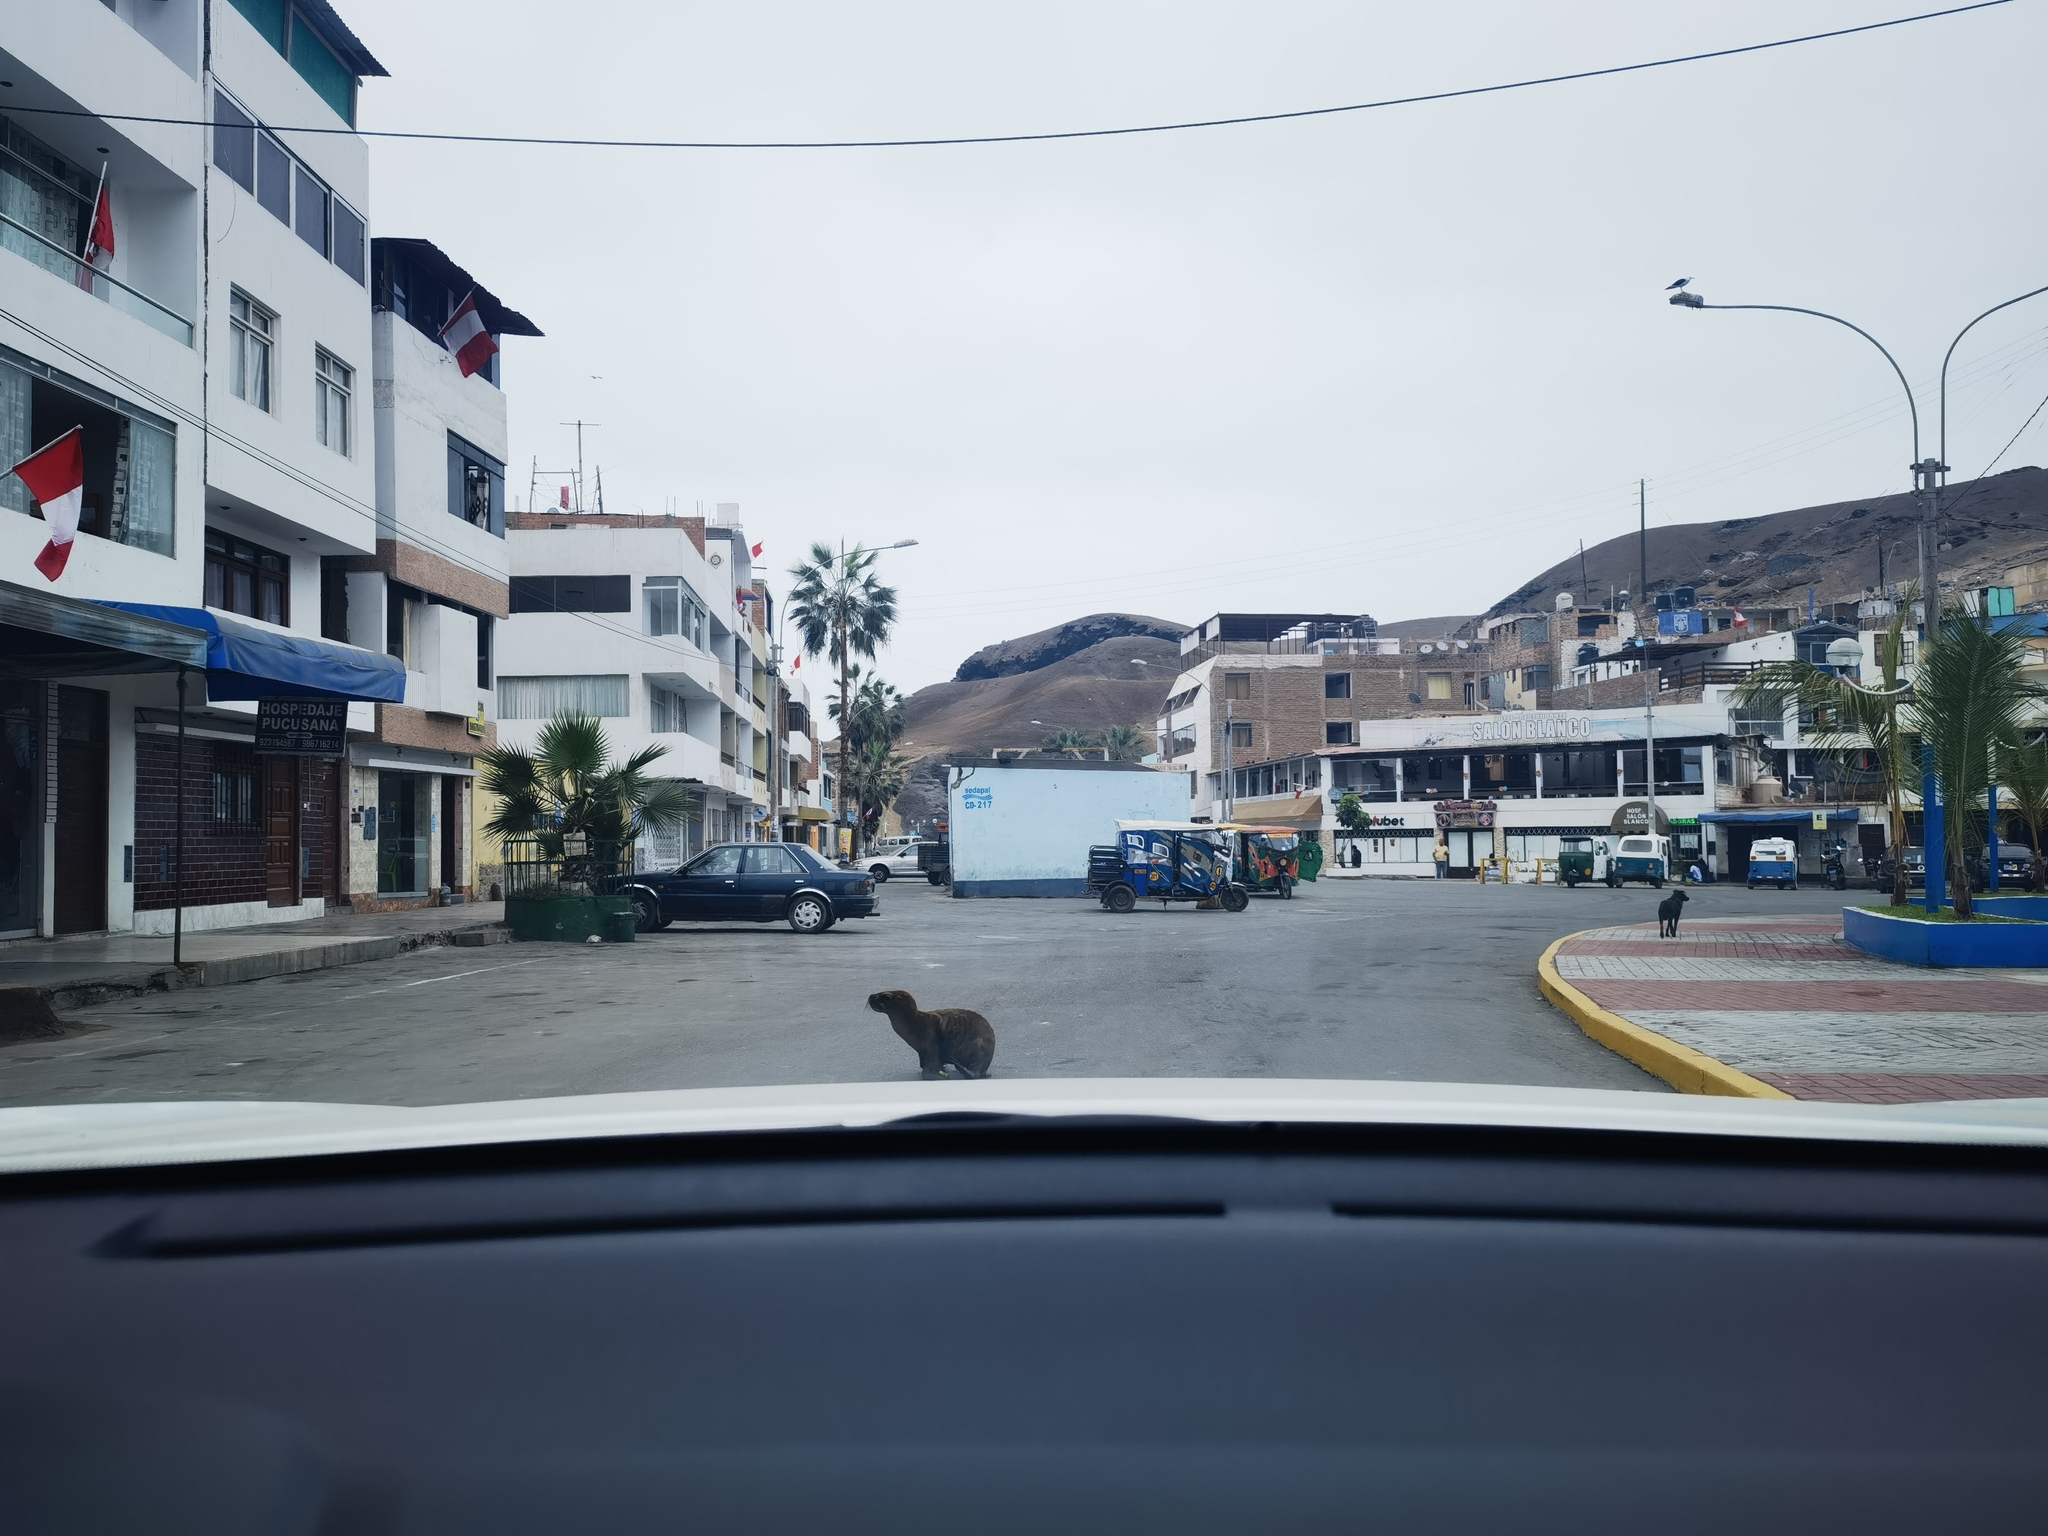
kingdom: Animalia
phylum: Chordata
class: Mammalia
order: Carnivora
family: Otariidae
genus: Otaria
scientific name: Otaria byronia
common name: South american sea lion
